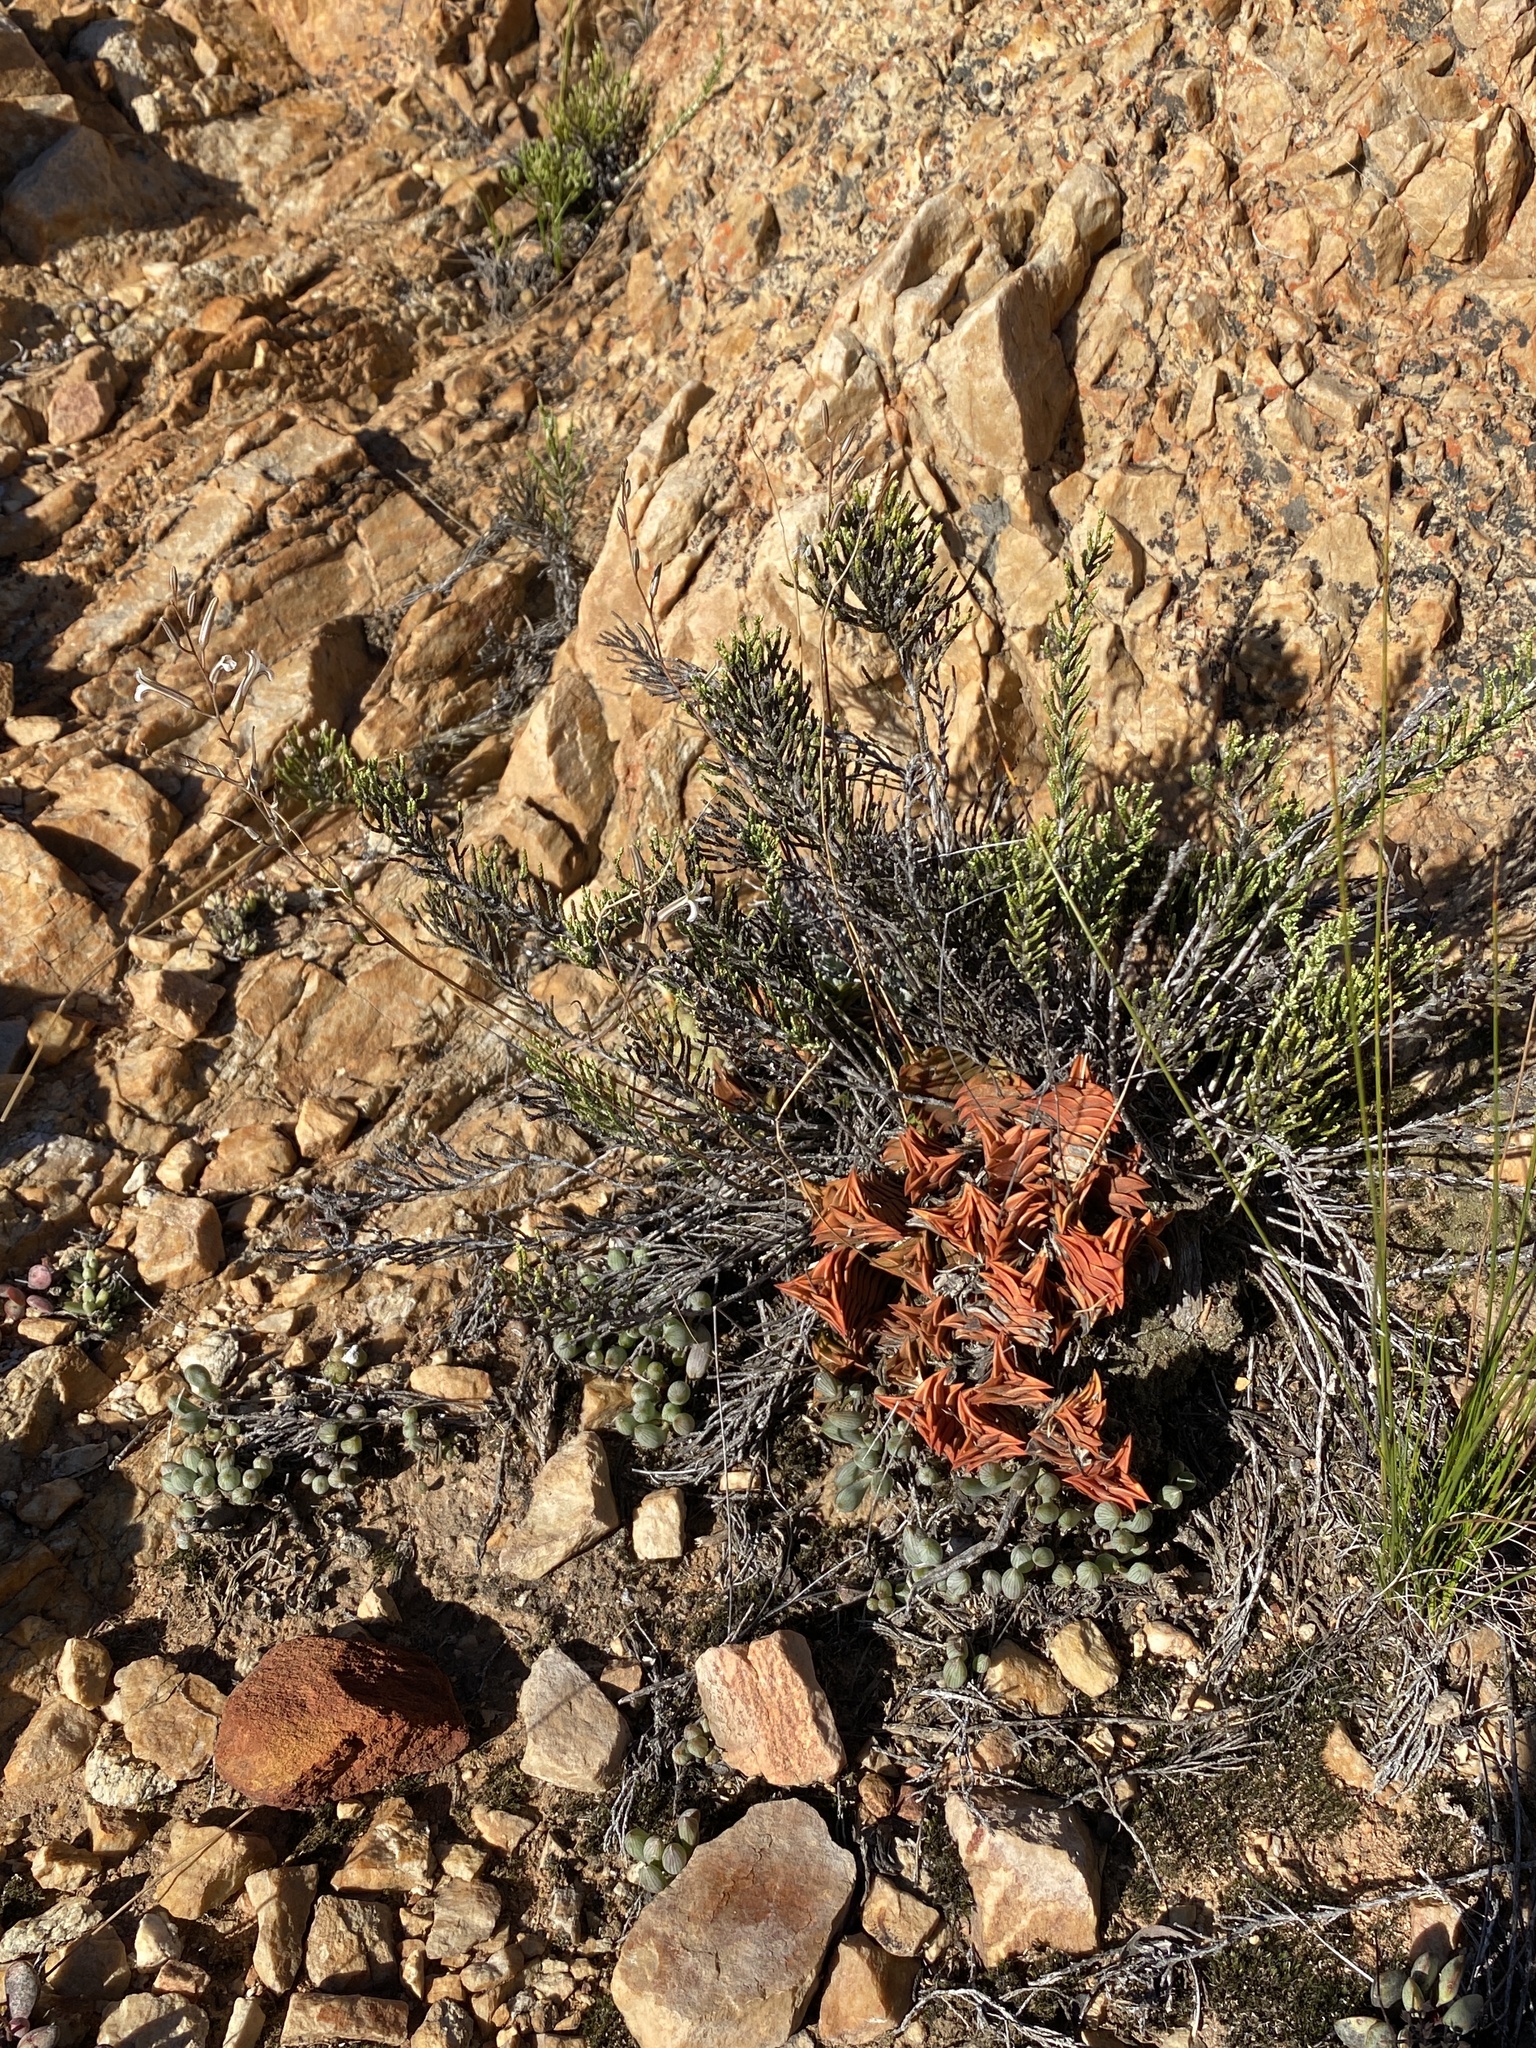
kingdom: Plantae
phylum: Tracheophyta
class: Liliopsida
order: Asparagales
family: Asphodelaceae
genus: Haworthiopsis
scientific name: Haworthiopsis viscosa
